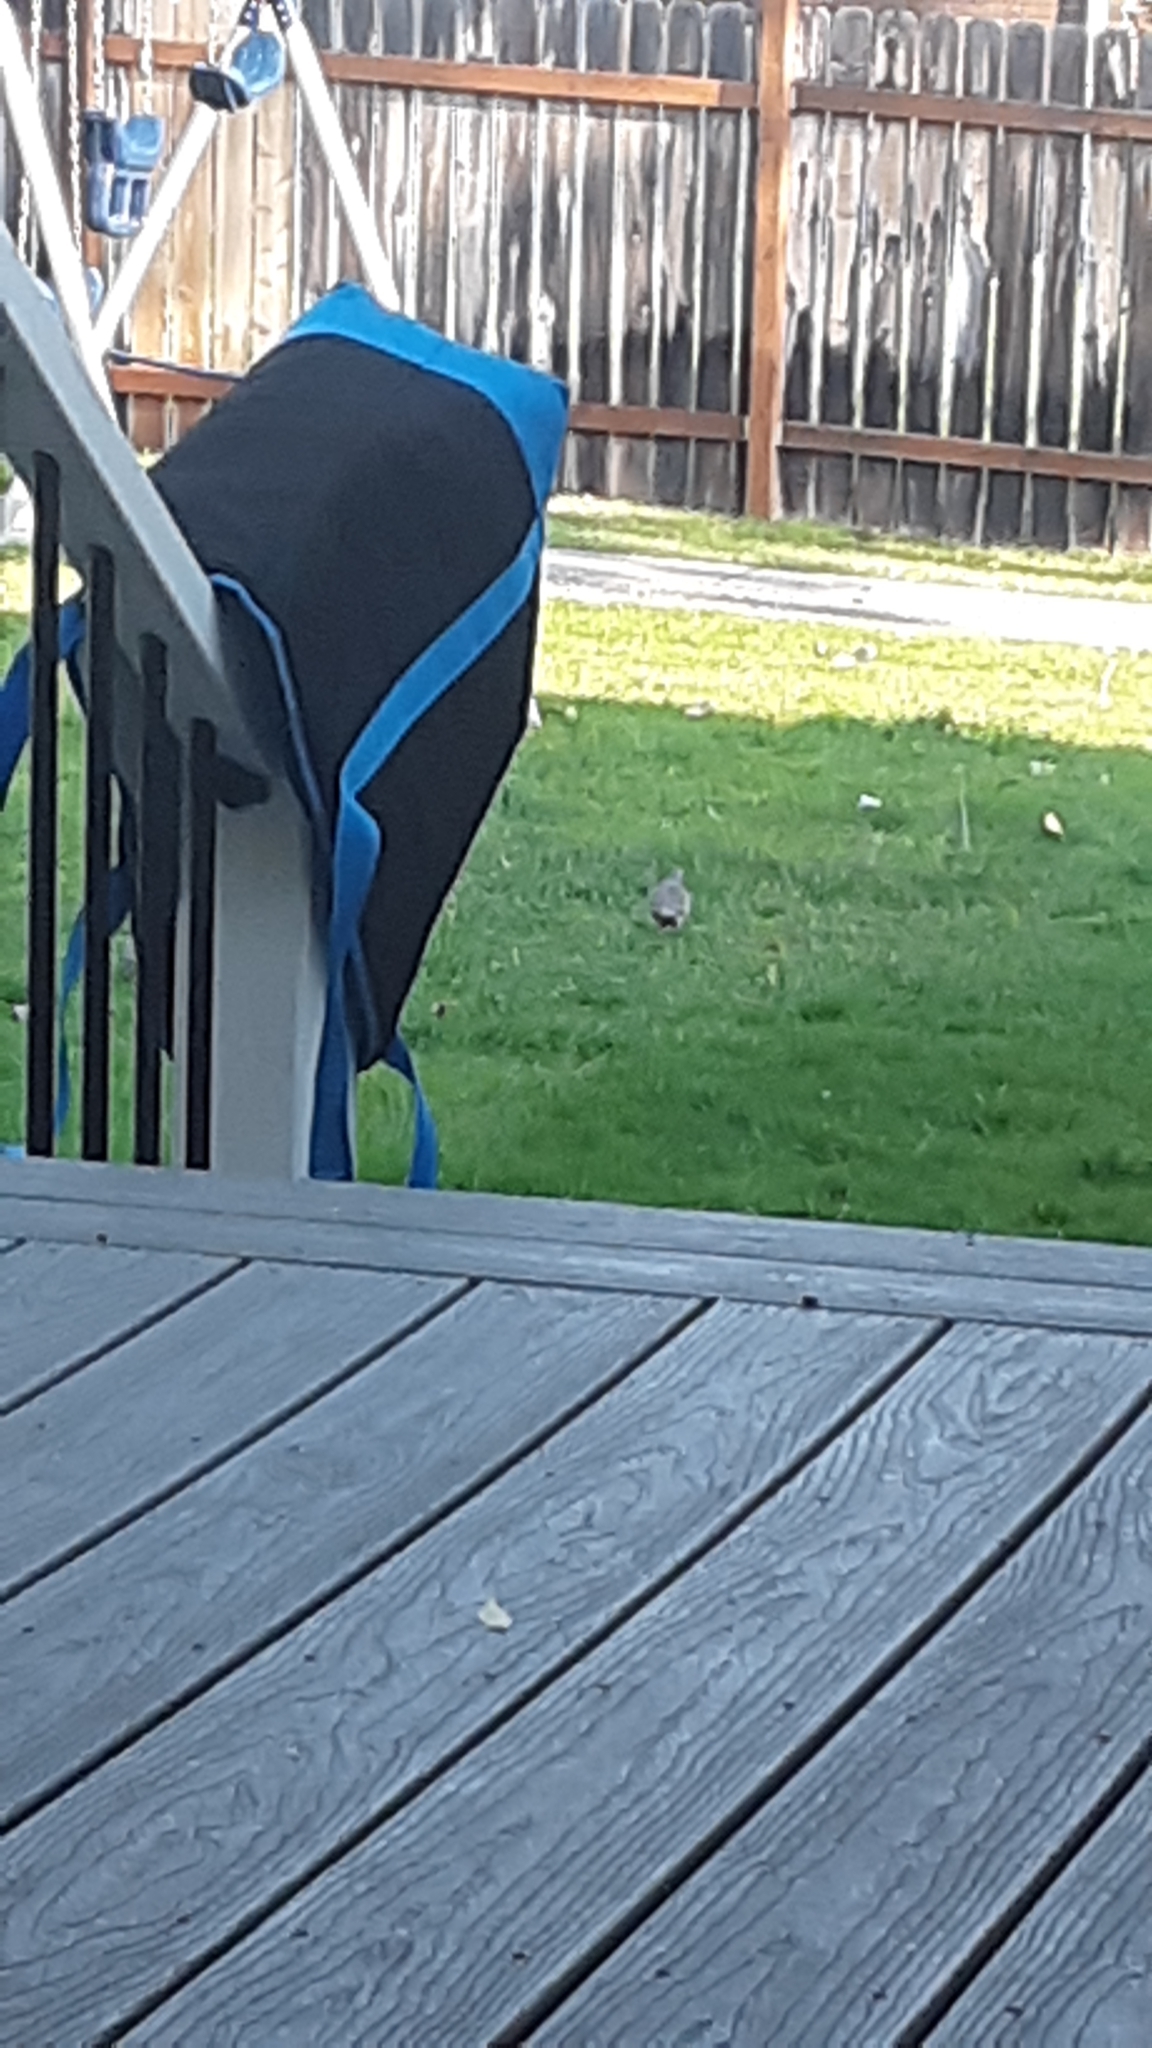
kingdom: Animalia
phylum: Chordata
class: Aves
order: Columbiformes
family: Columbidae
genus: Zenaida
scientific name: Zenaida macroura
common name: Mourning dove
